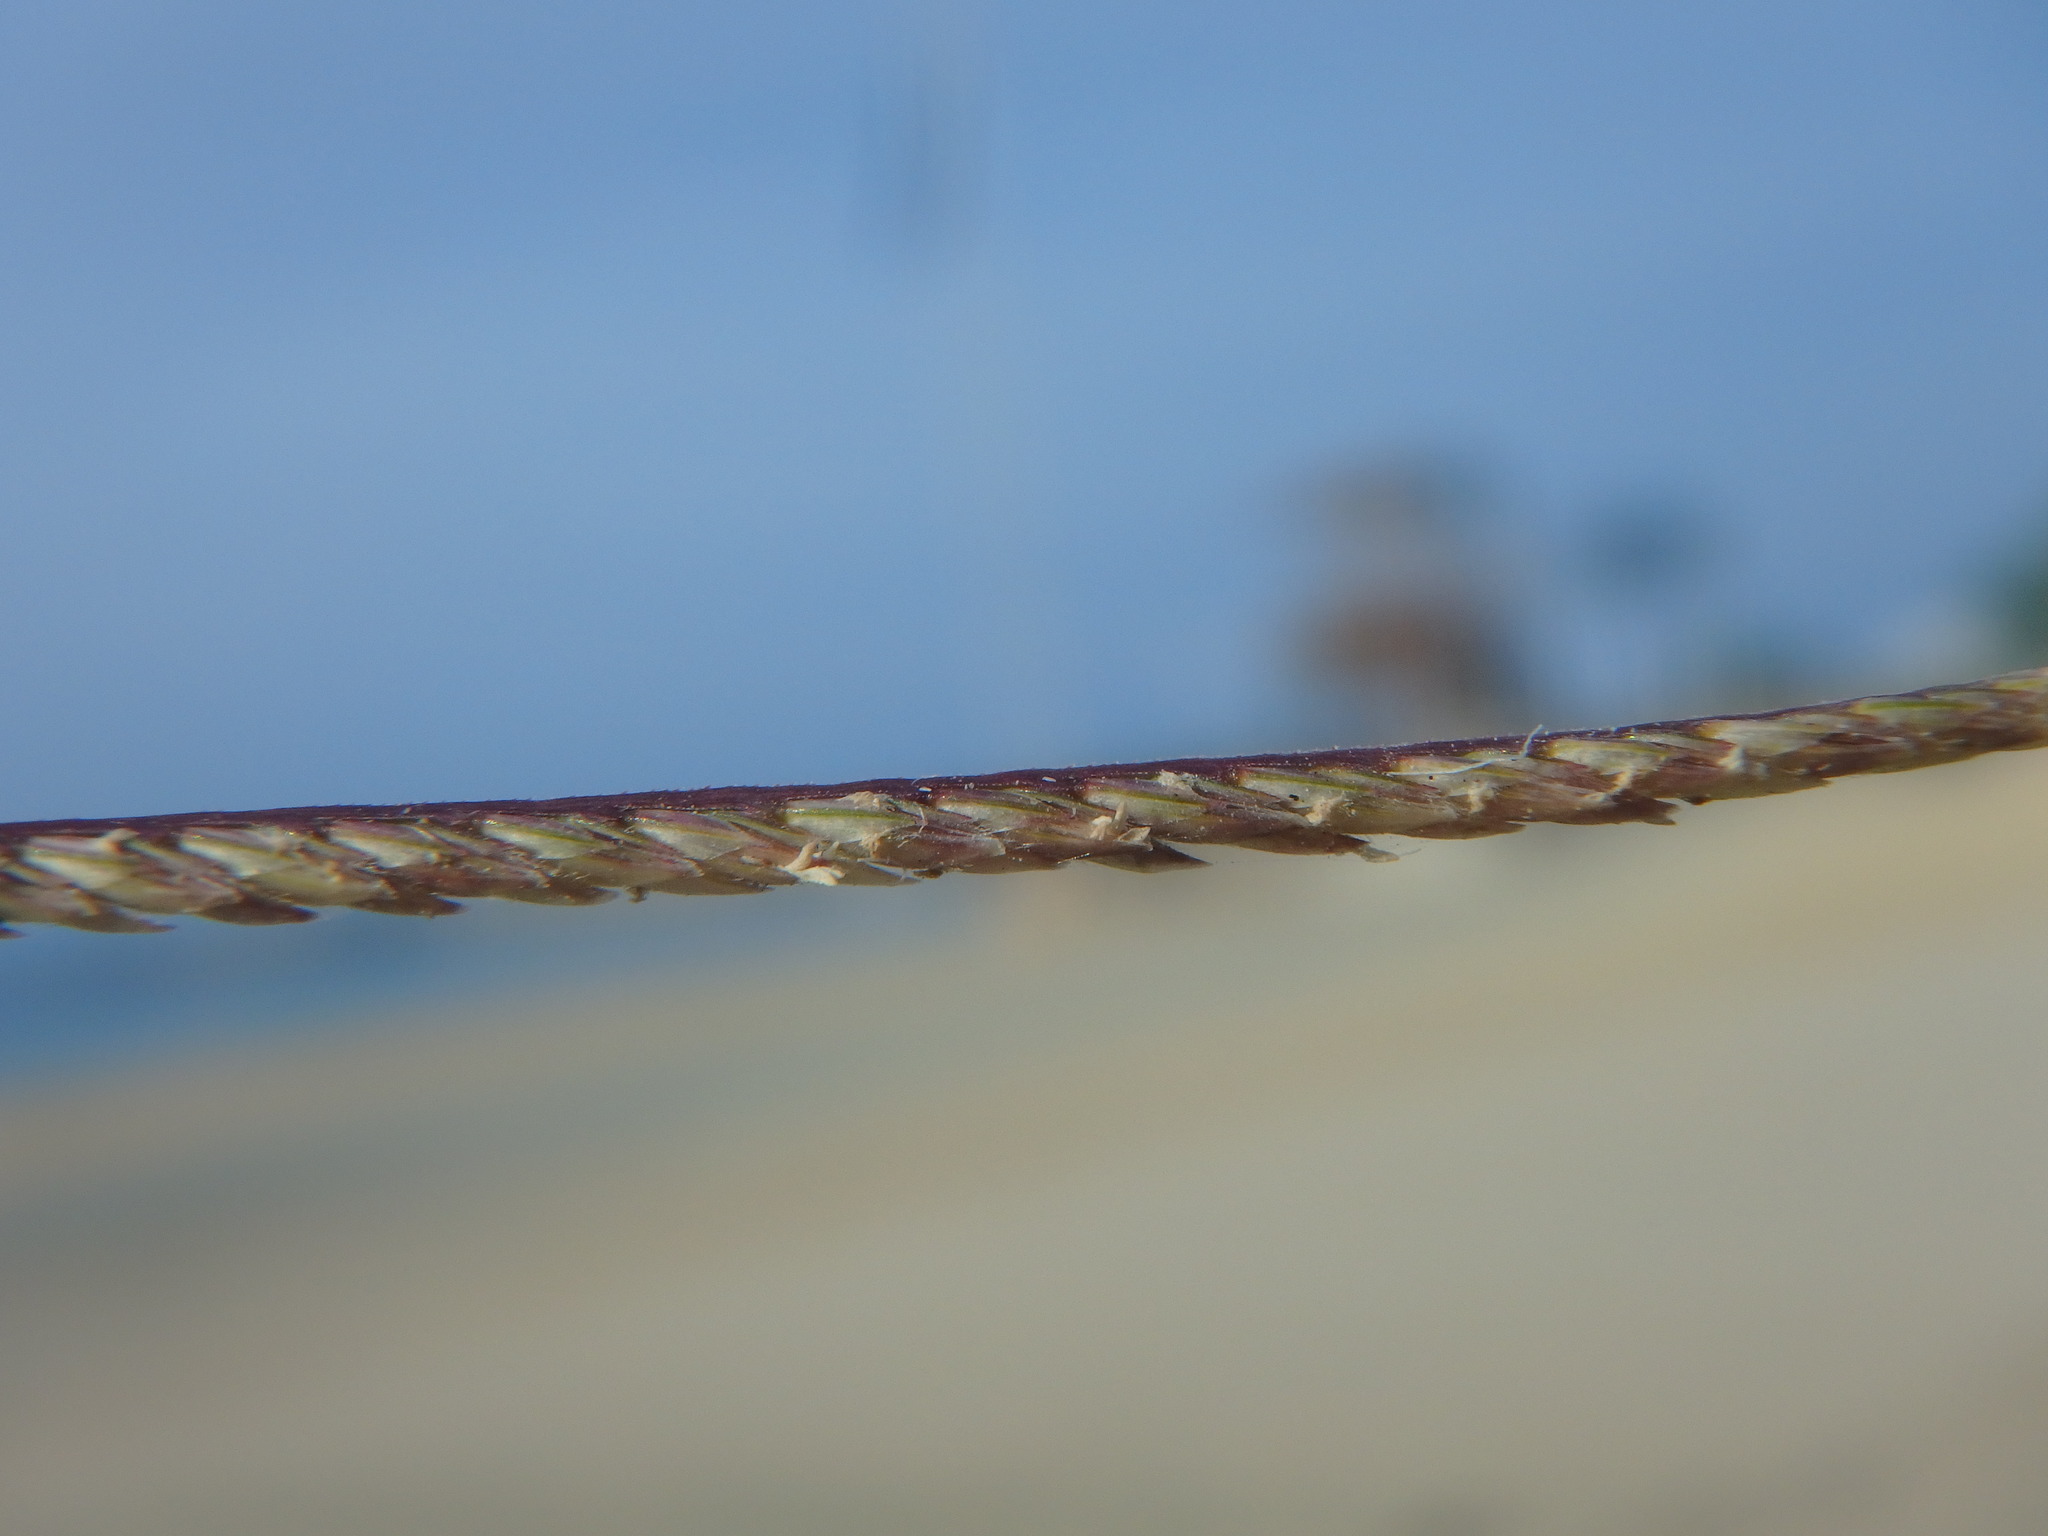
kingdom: Plantae
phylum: Tracheophyta
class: Liliopsida
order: Poales
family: Poaceae
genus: Cynodon
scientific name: Cynodon dactylon
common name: Bermuda grass
